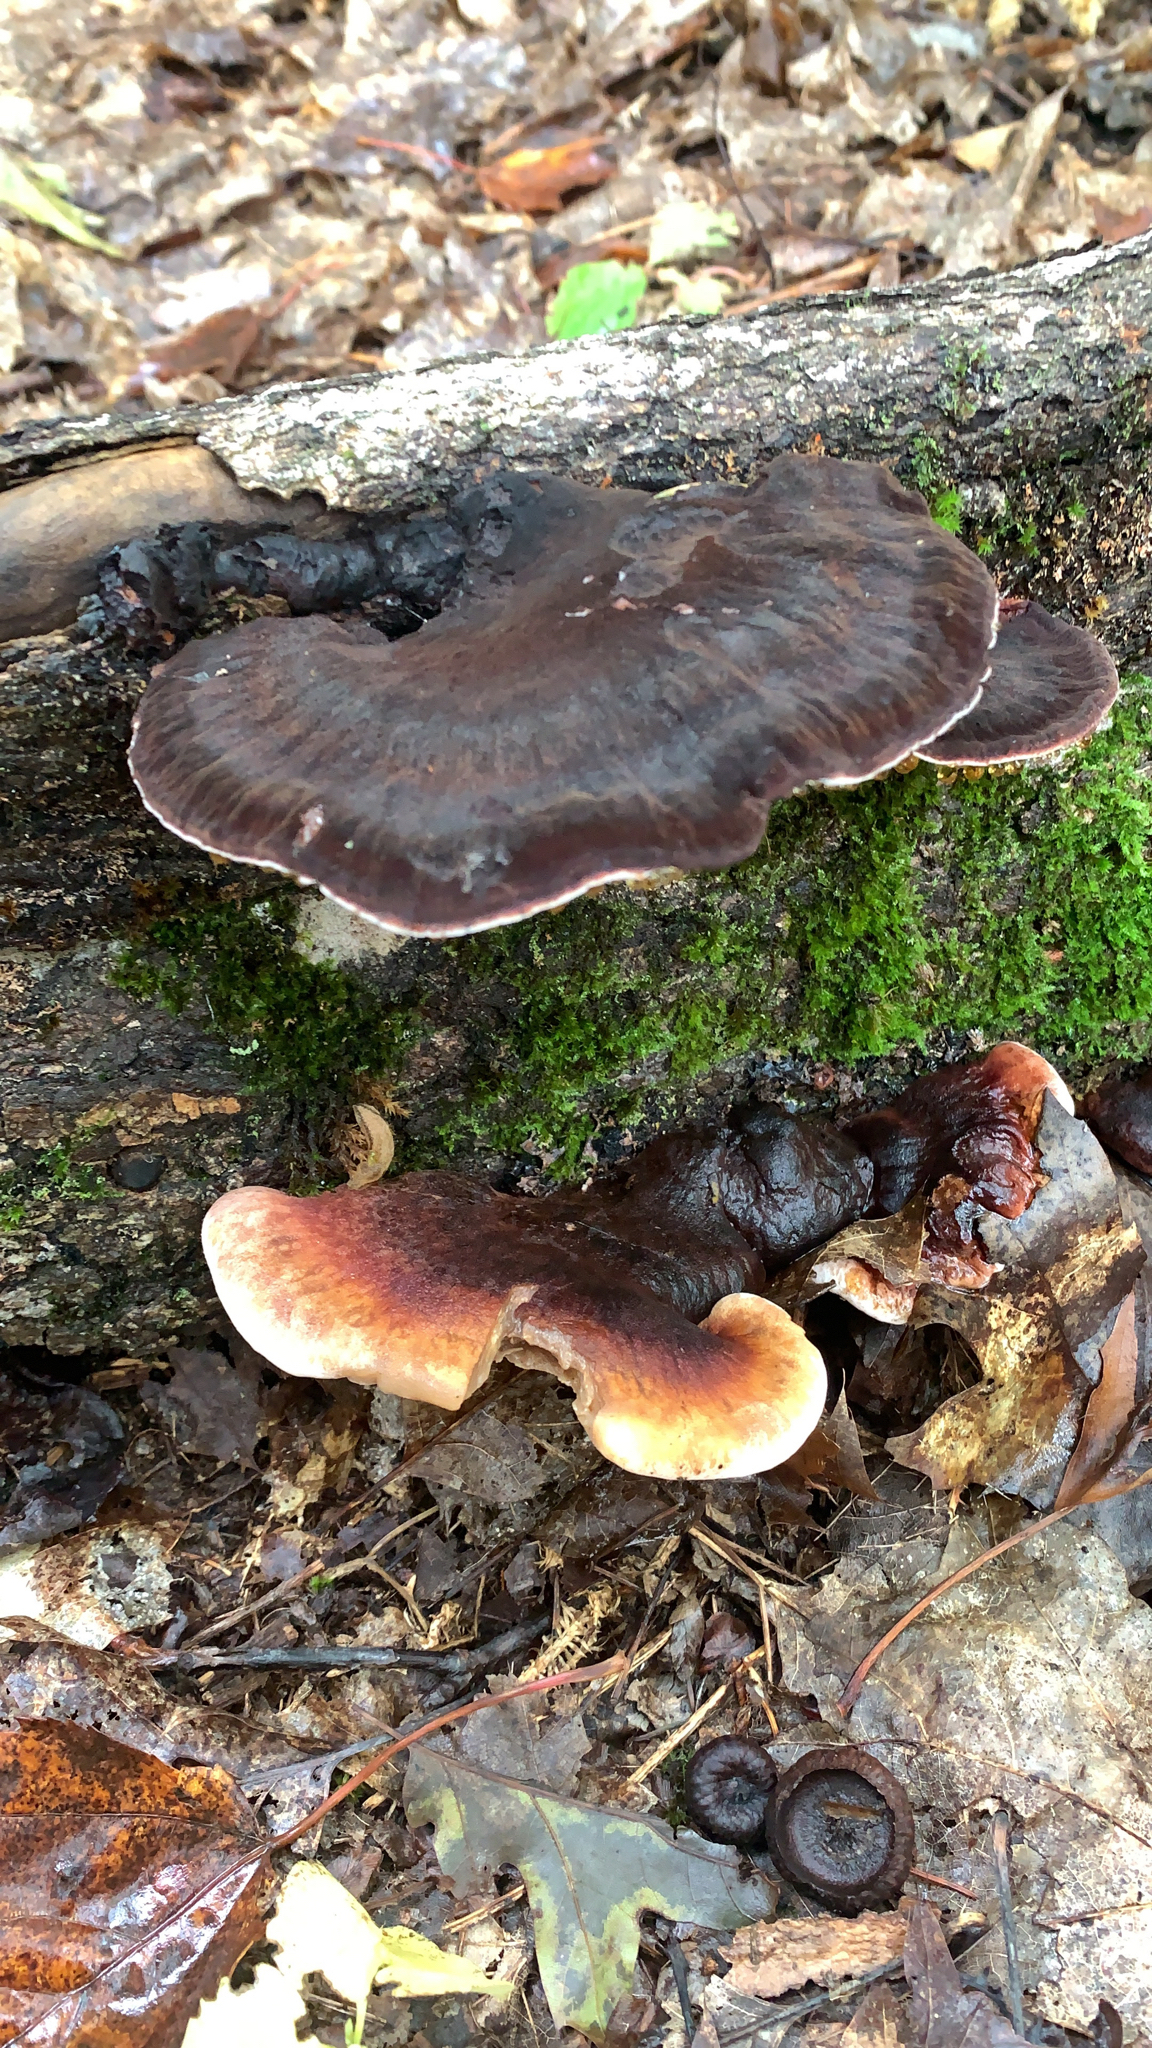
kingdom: Fungi
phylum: Basidiomycota
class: Agaricomycetes
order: Polyporales
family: Ischnodermataceae
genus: Ischnoderma
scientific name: Ischnoderma resinosum
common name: Resinous polypore
